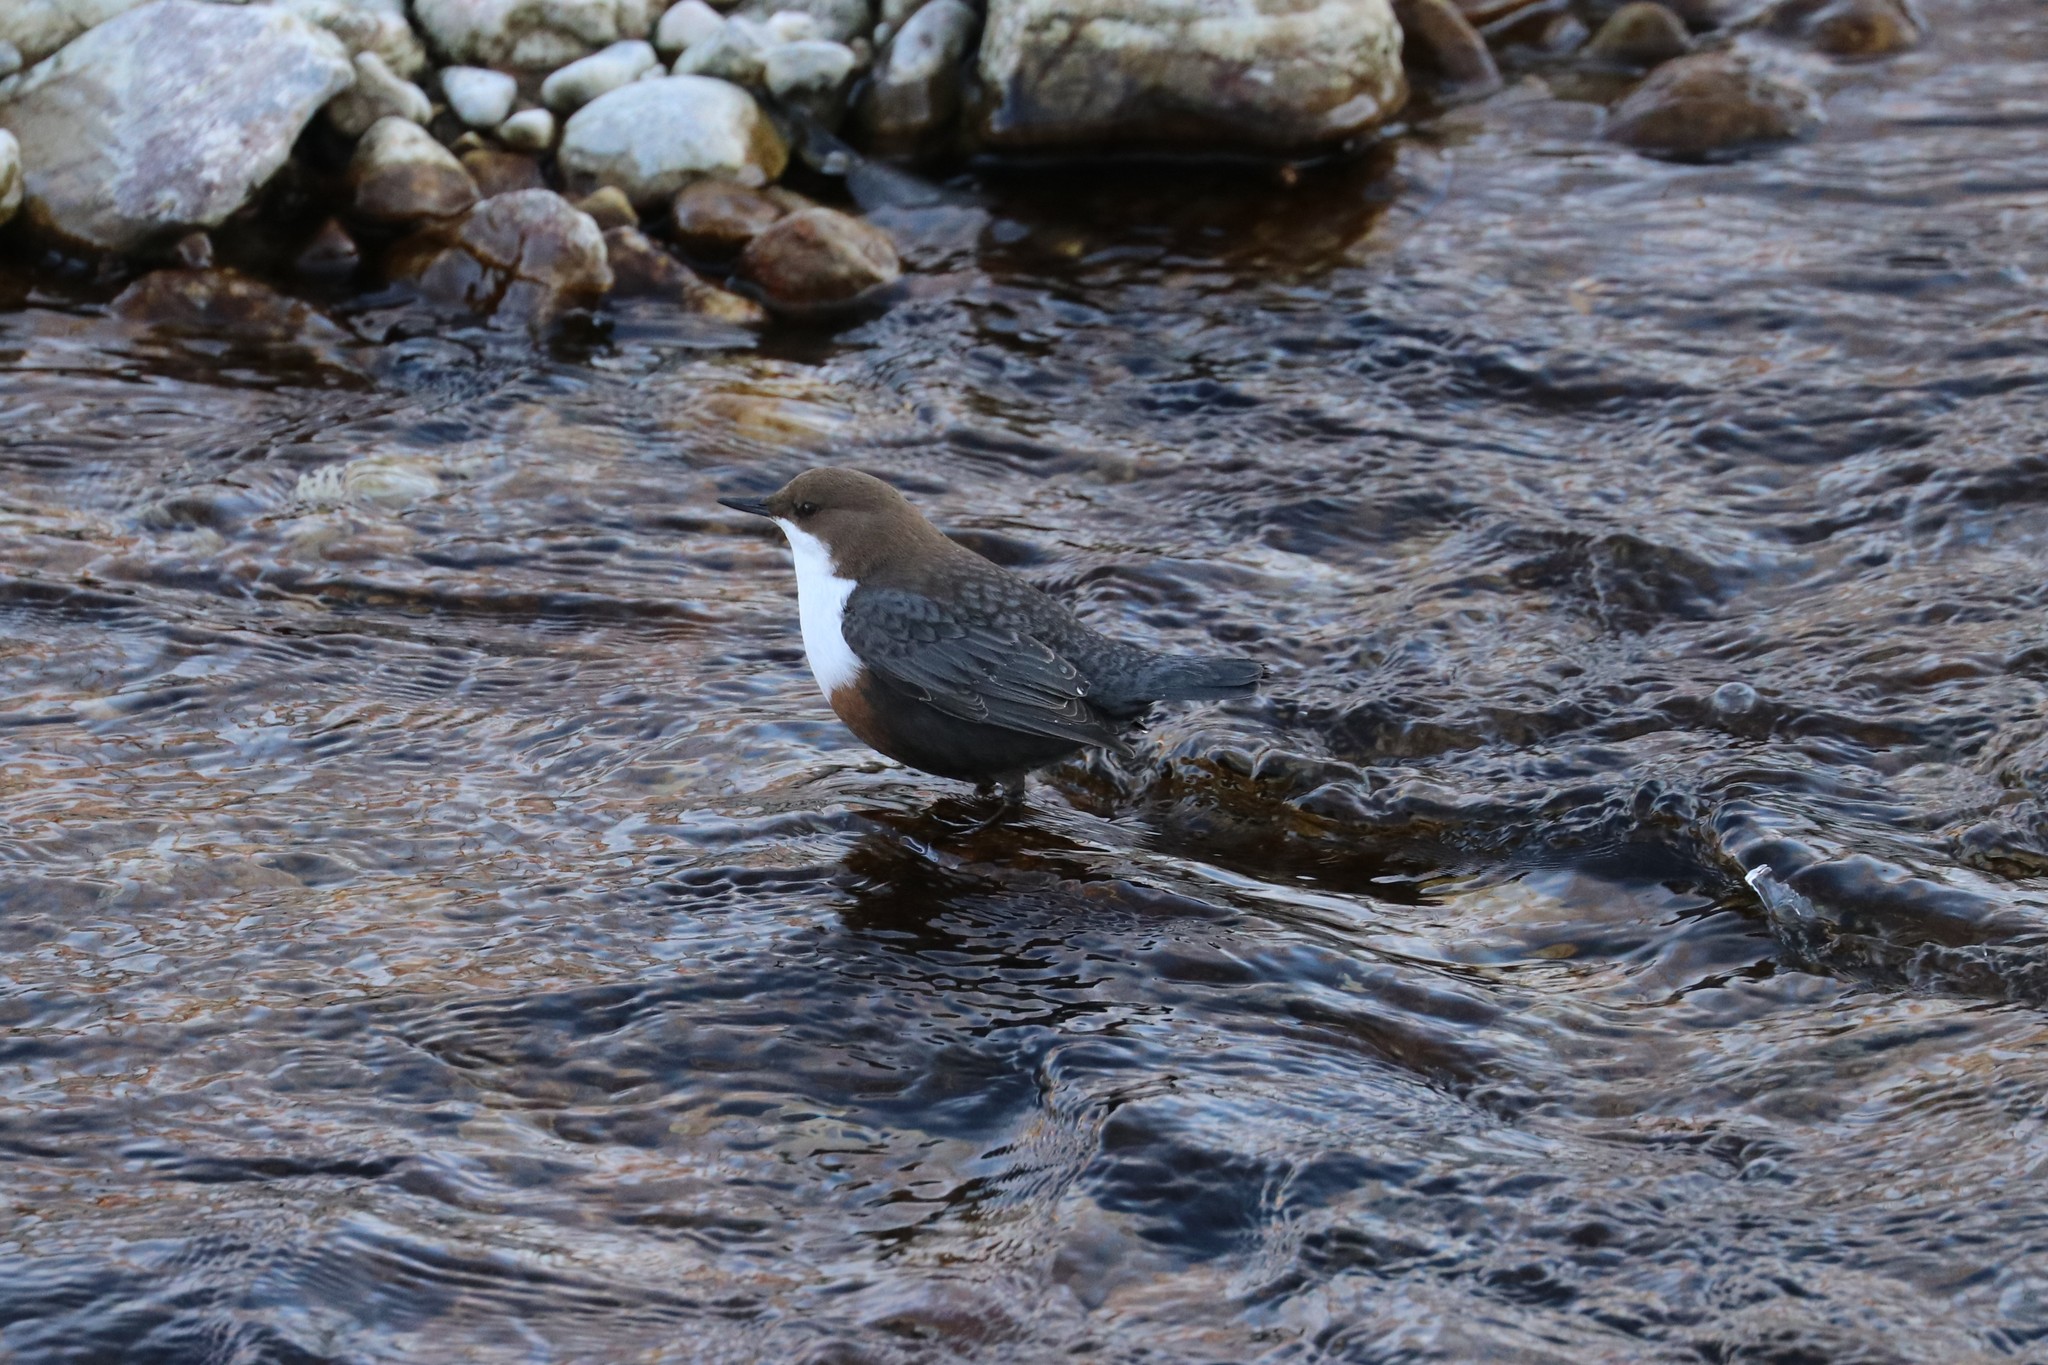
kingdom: Animalia
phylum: Chordata
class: Aves
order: Passeriformes
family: Cinclidae
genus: Cinclus
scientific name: Cinclus cinclus
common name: White-throated dipper
